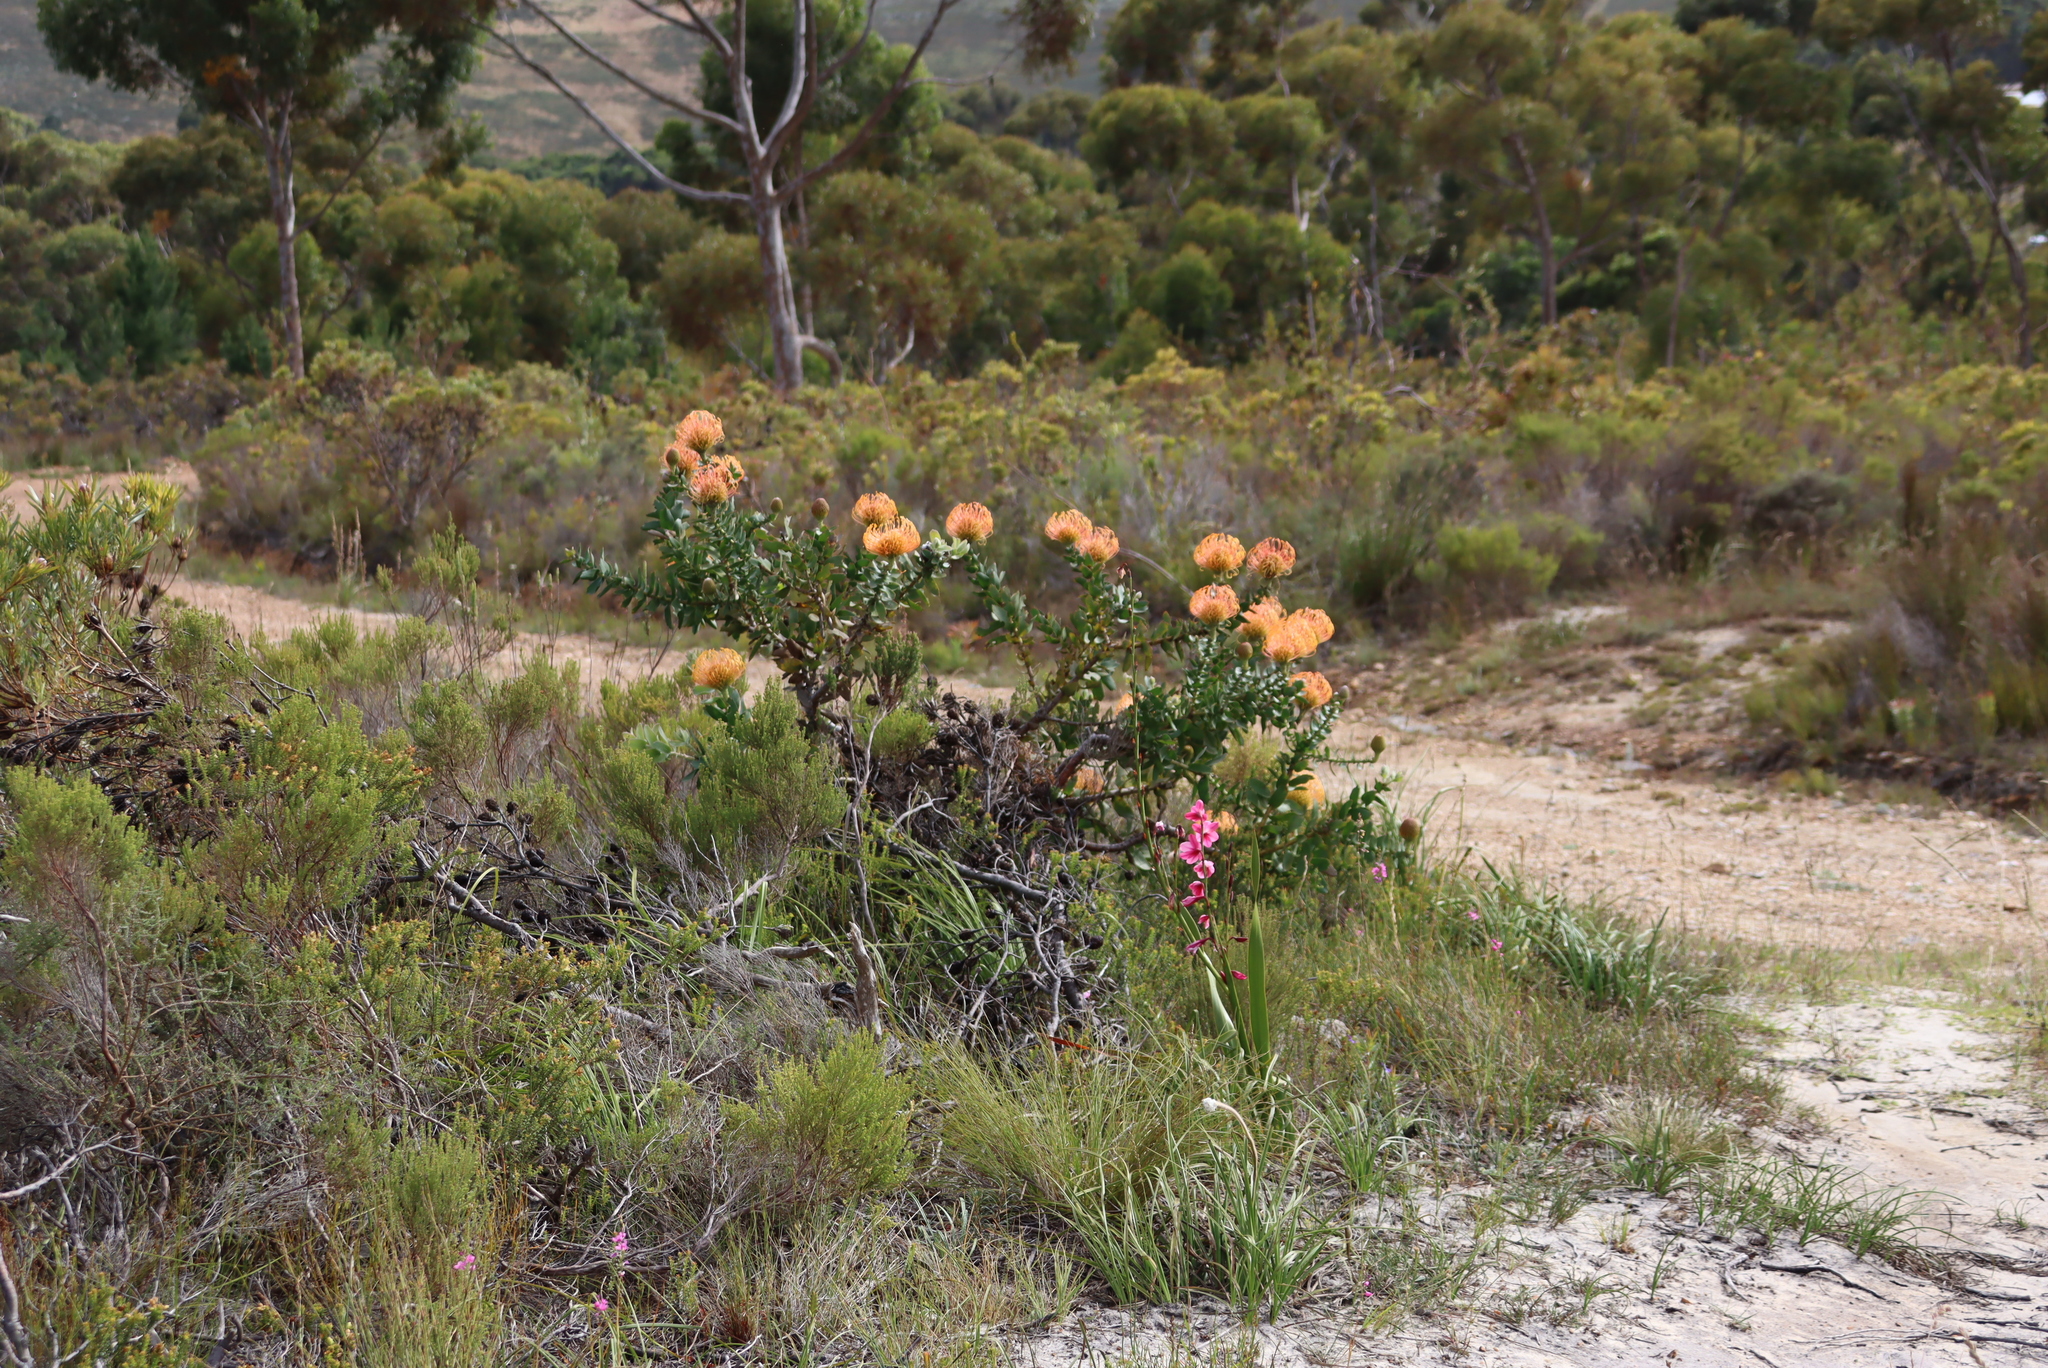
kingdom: Plantae
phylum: Tracheophyta
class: Magnoliopsida
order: Proteales
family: Proteaceae
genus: Leucospermum
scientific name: Leucospermum cordifolium
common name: Red pincushion-protea
